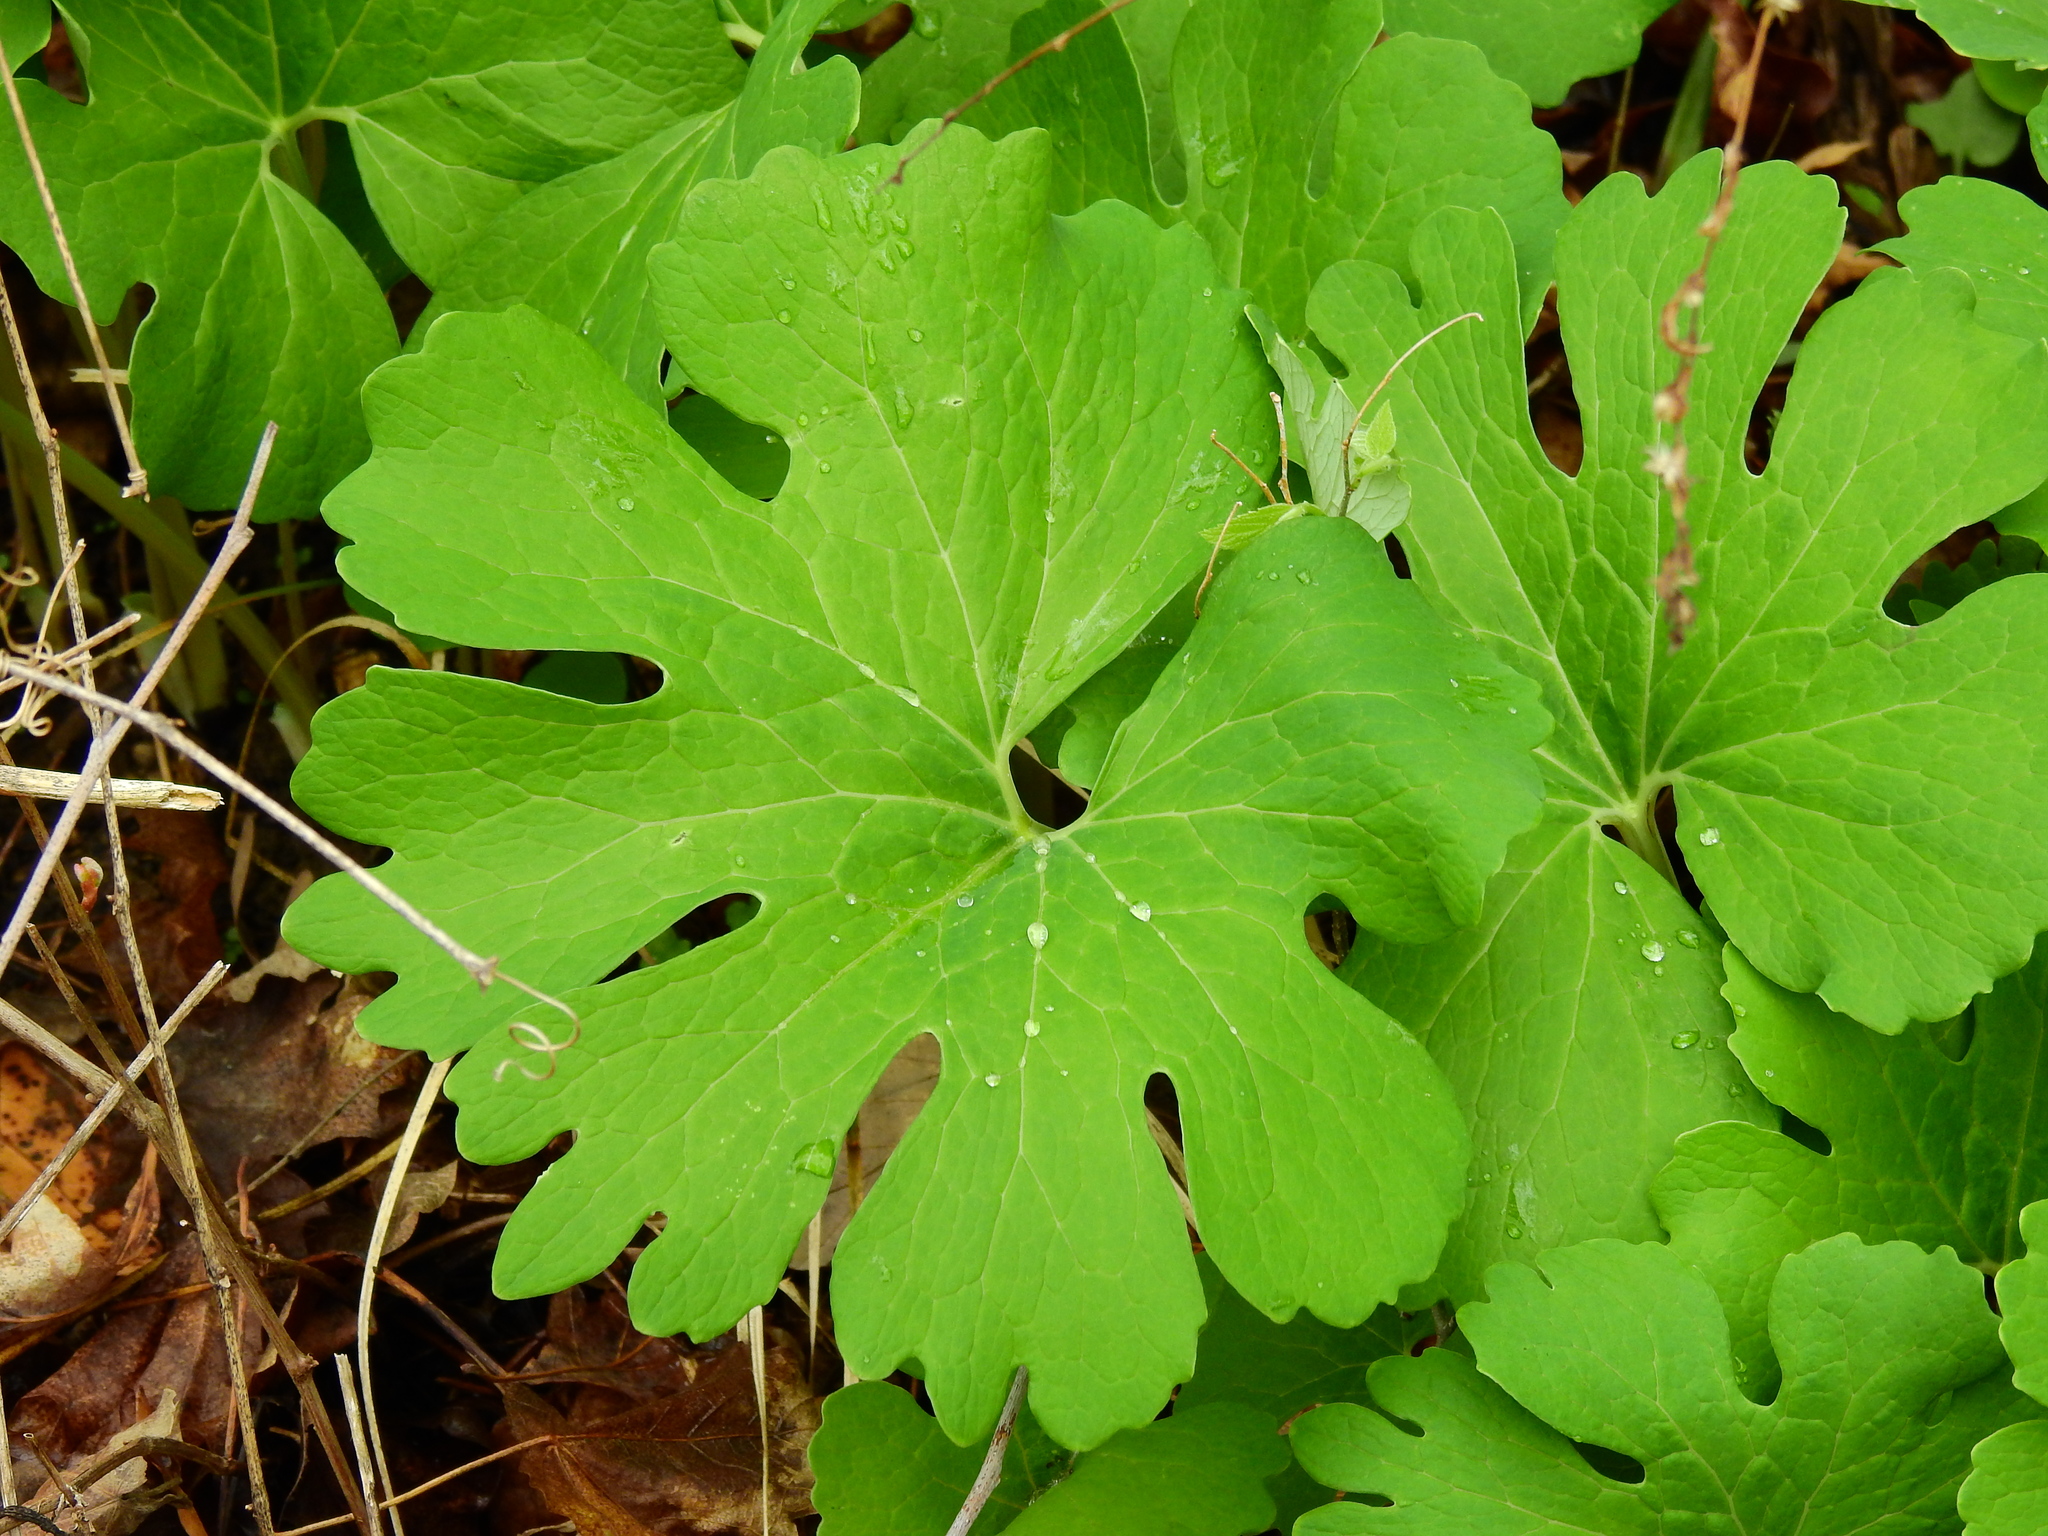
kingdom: Plantae
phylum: Tracheophyta
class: Magnoliopsida
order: Ranunculales
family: Papaveraceae
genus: Sanguinaria
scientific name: Sanguinaria canadensis
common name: Bloodroot
